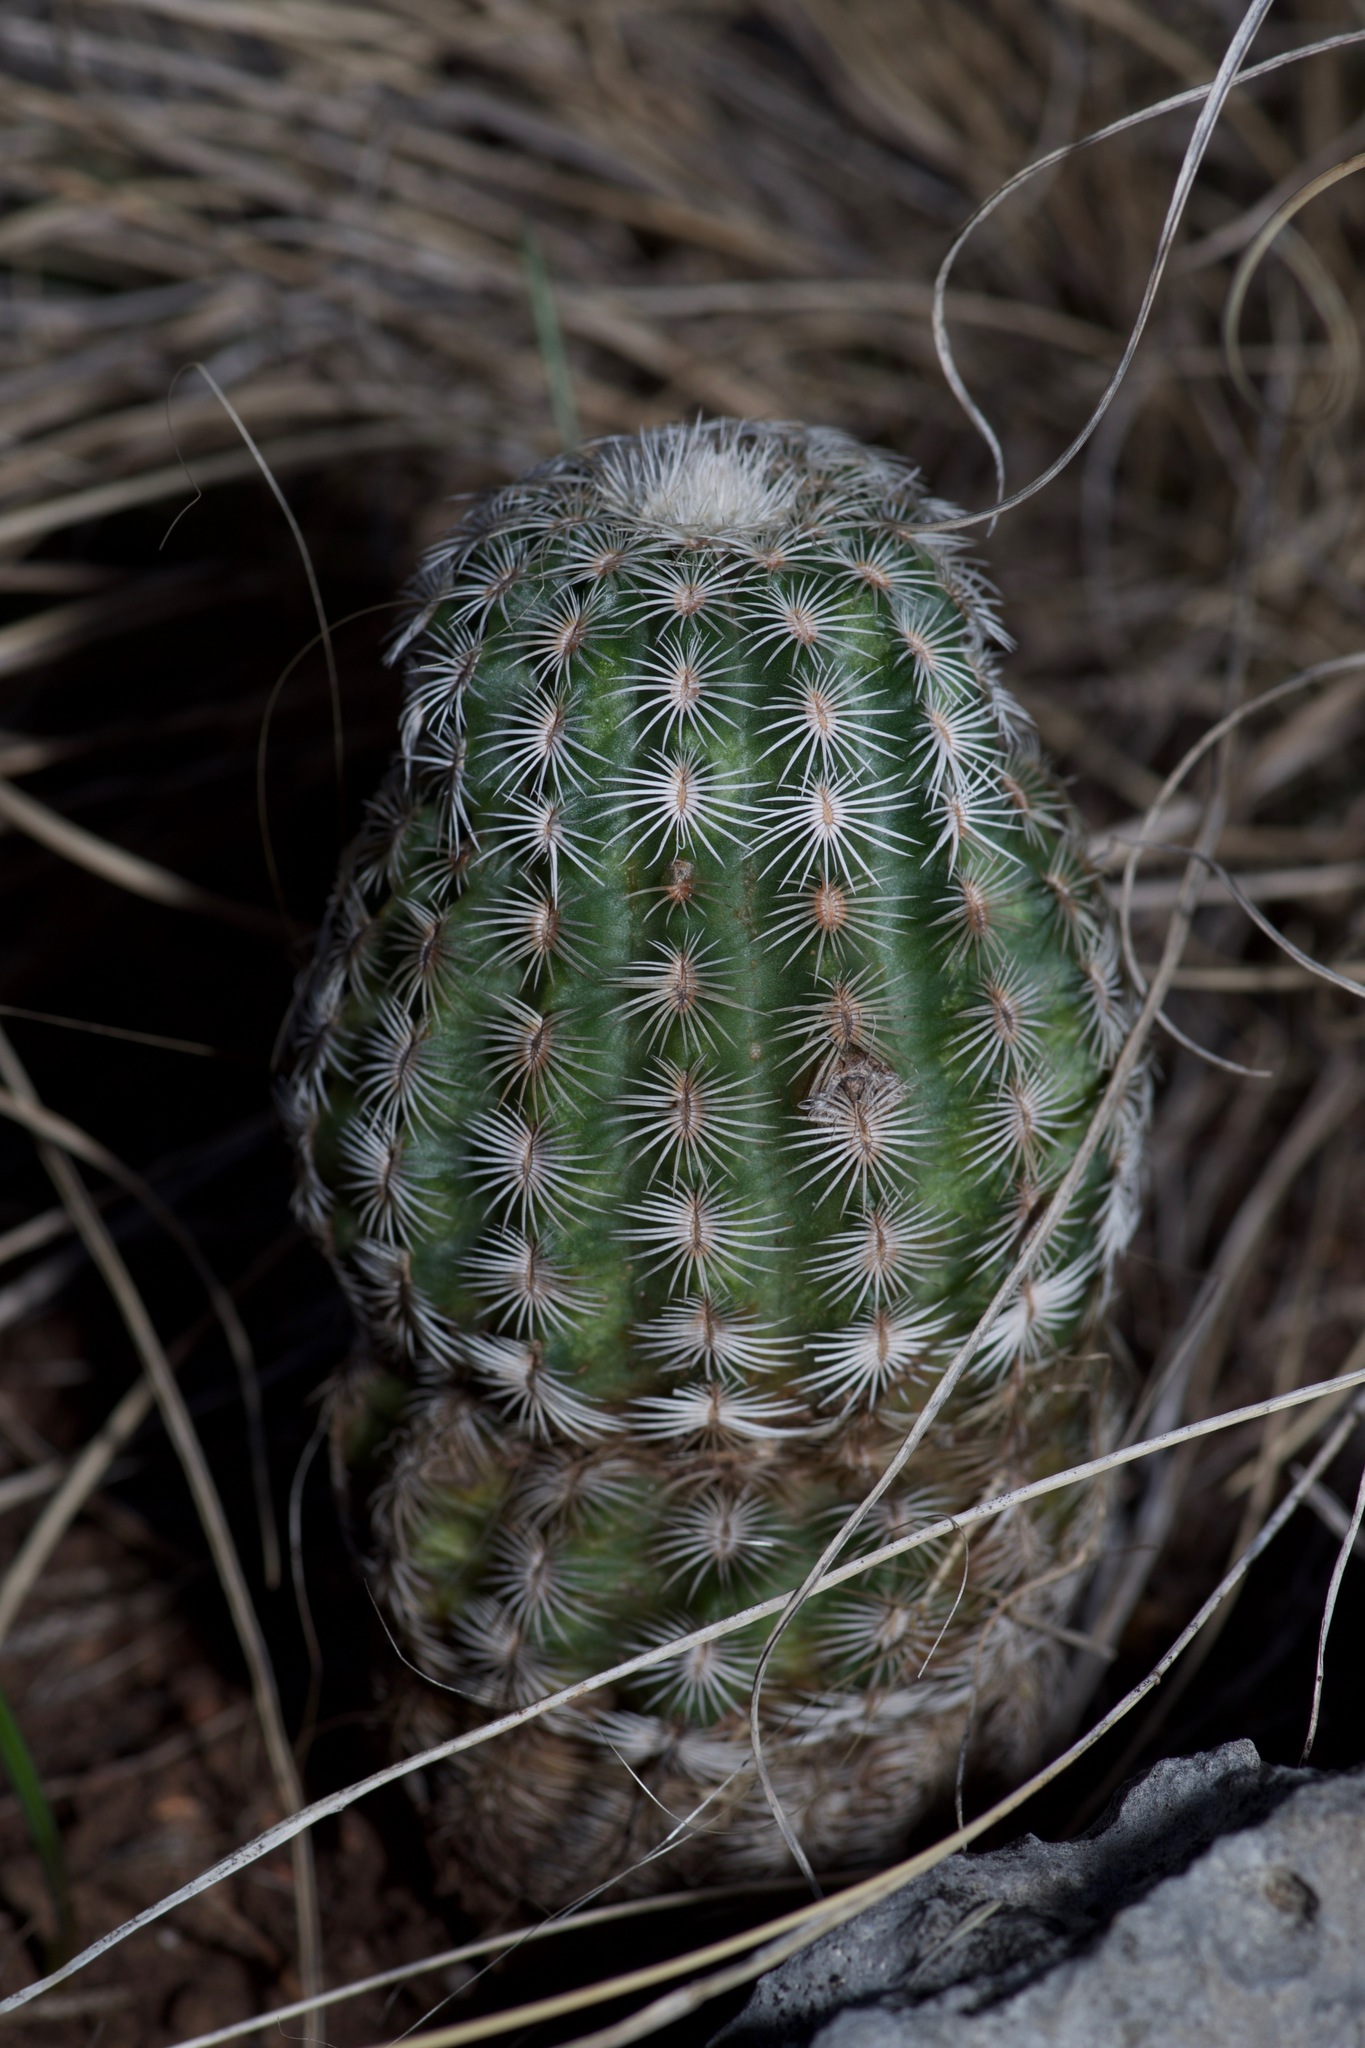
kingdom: Plantae
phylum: Tracheophyta
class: Magnoliopsida
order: Caryophyllales
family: Cactaceae
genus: Echinocereus
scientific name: Echinocereus reichenbachii
